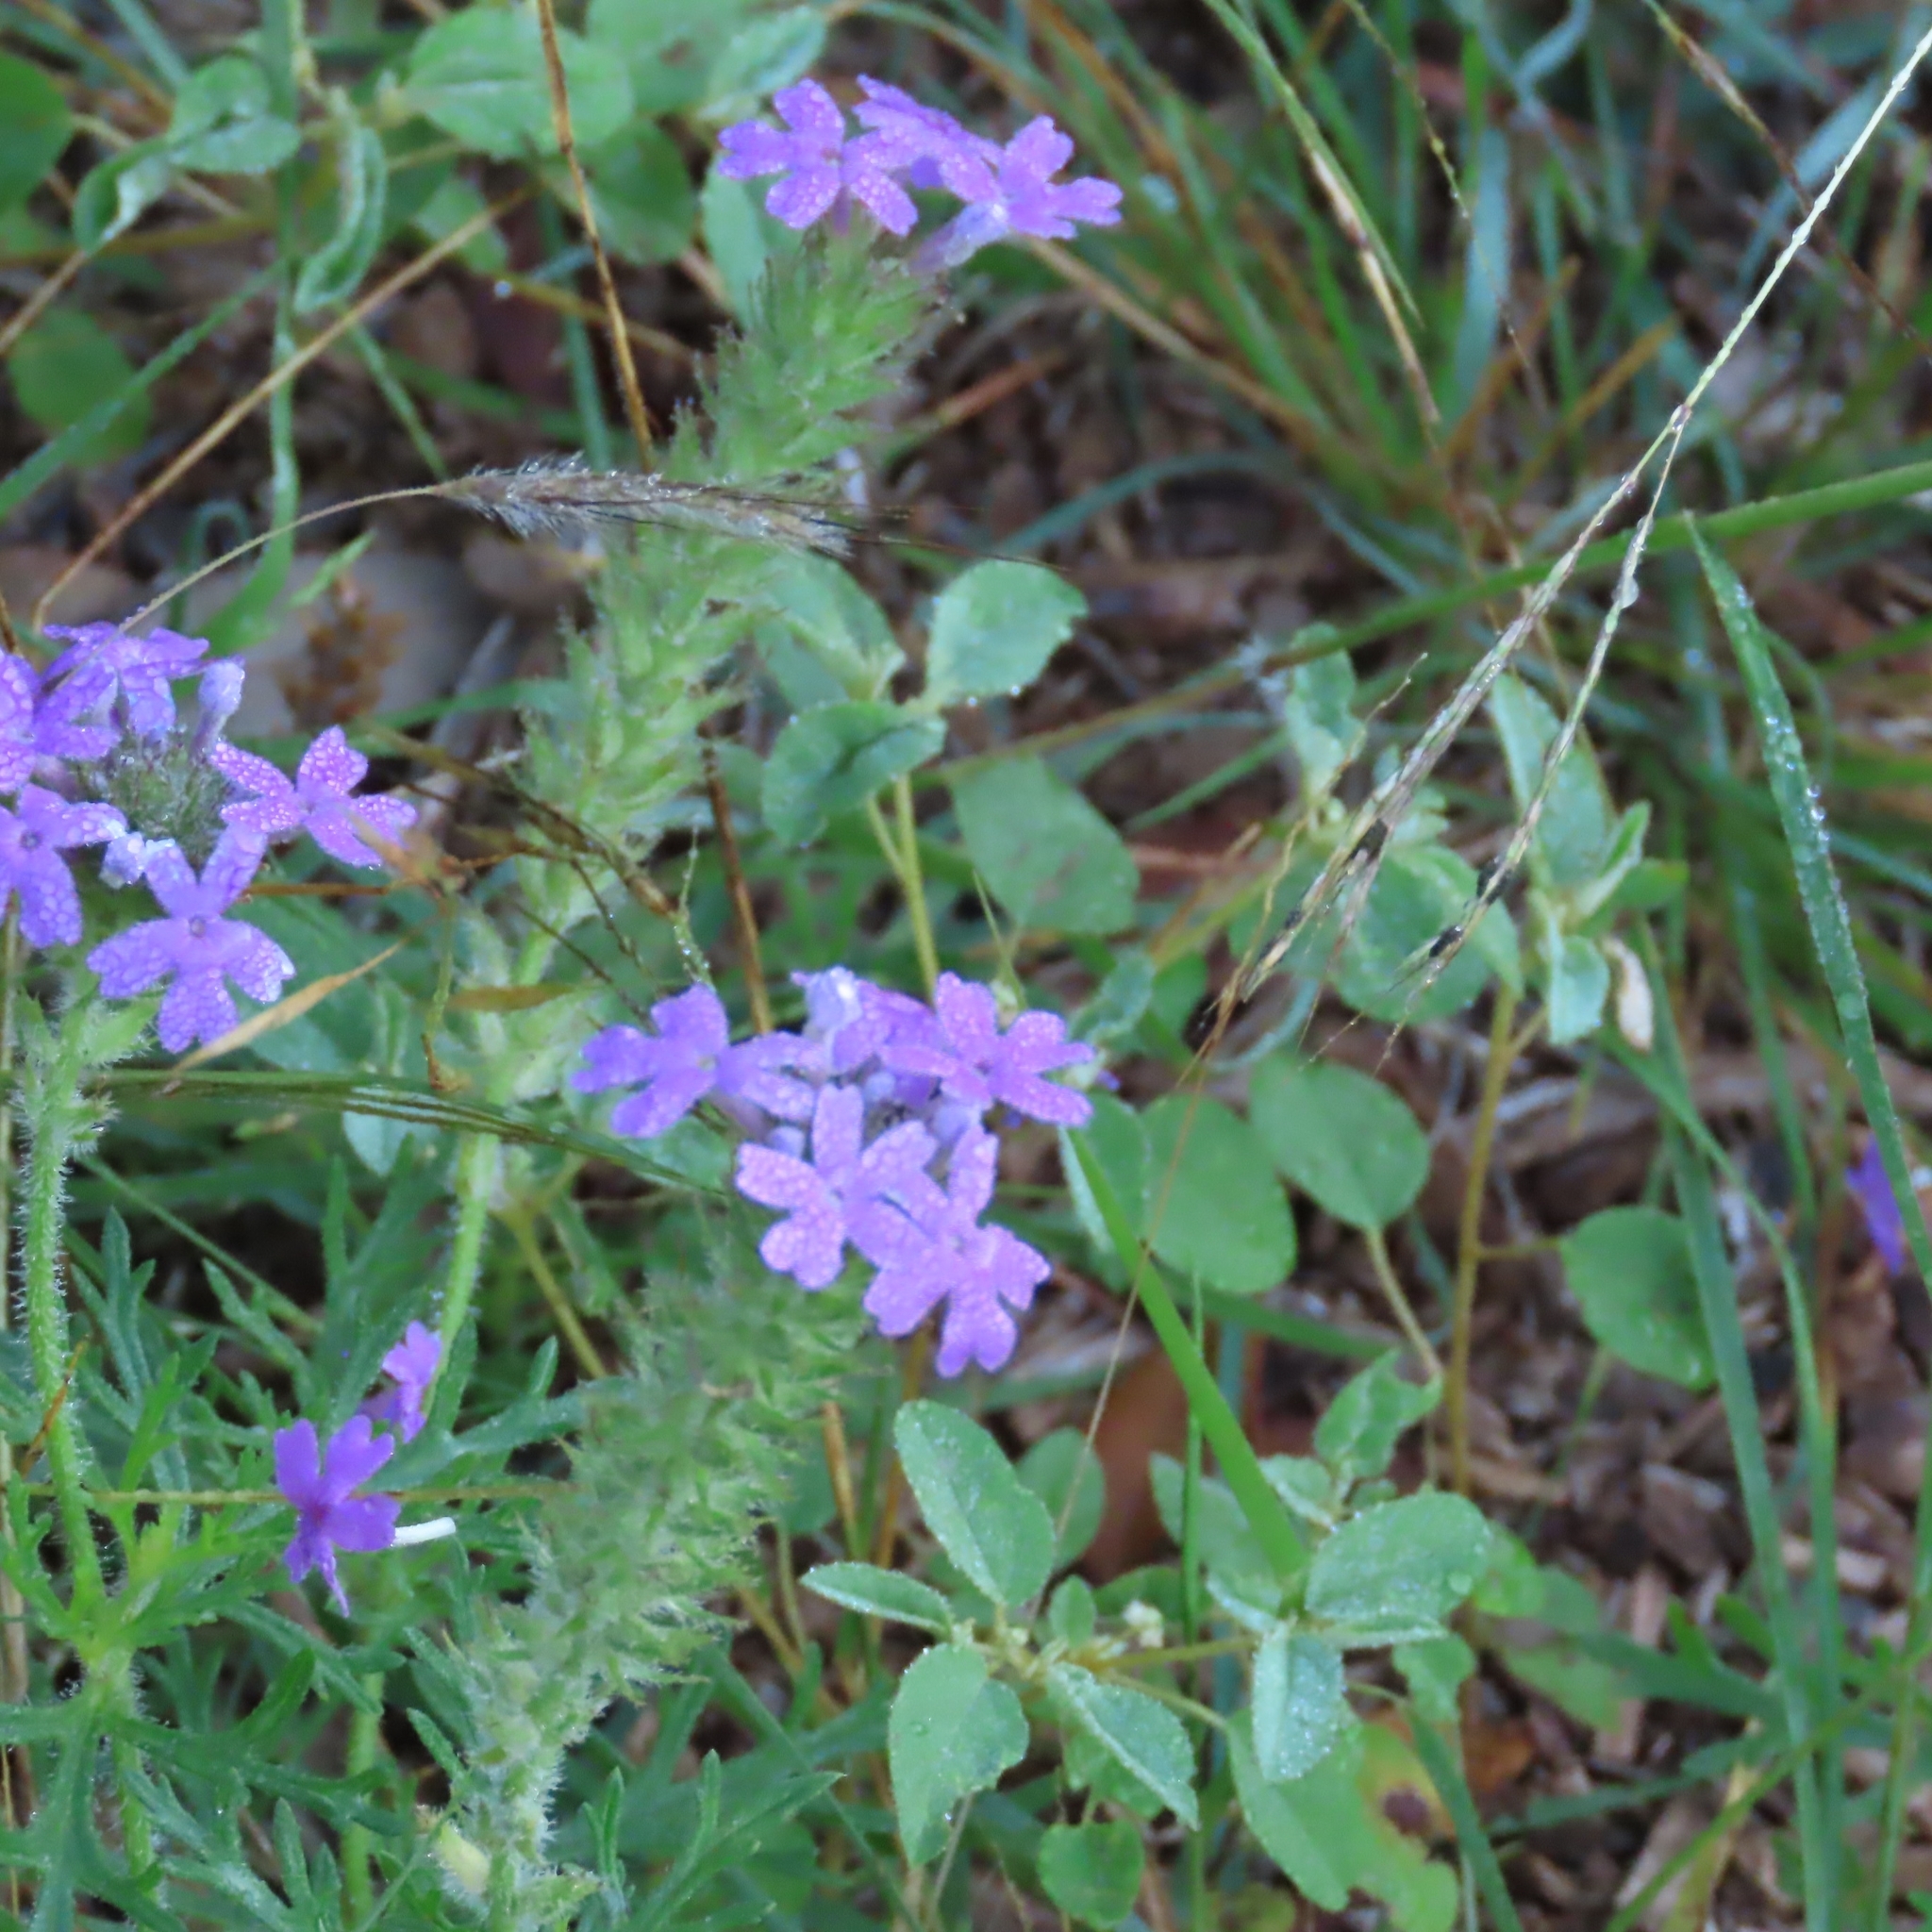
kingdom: Plantae
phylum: Tracheophyta
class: Magnoliopsida
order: Lamiales
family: Verbenaceae
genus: Verbena
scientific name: Verbena bipinnatifida
